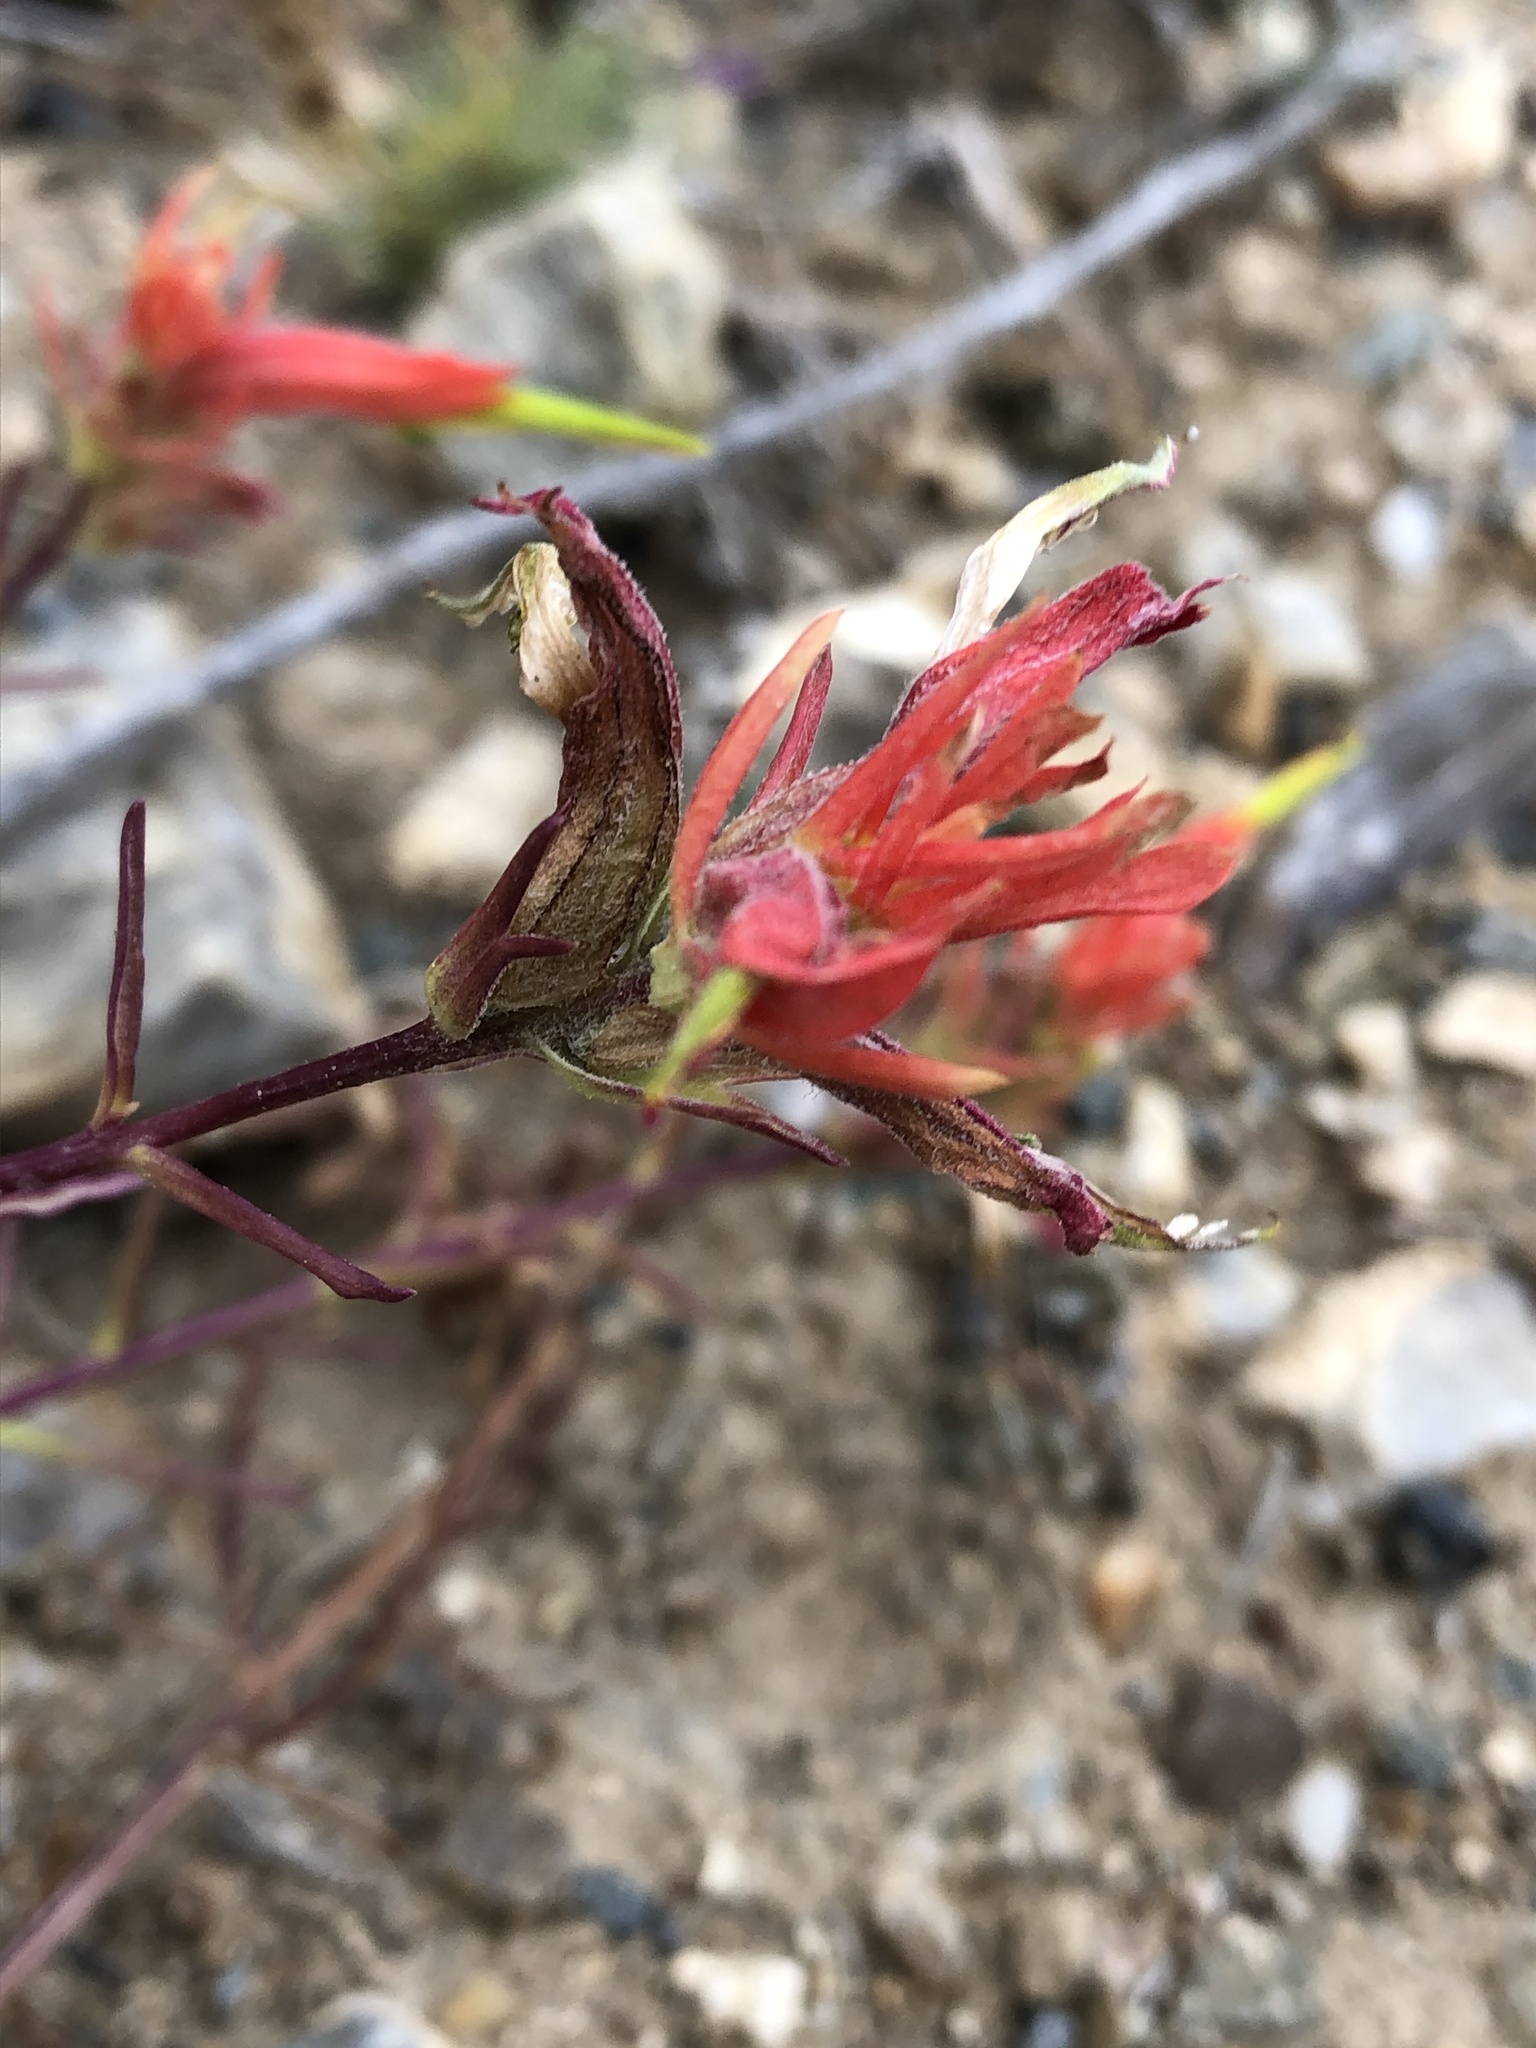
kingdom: Plantae
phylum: Tracheophyta
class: Magnoliopsida
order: Lamiales
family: Orobanchaceae
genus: Castilleja
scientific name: Castilleja linariifolia
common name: Wyoming paintbrush
